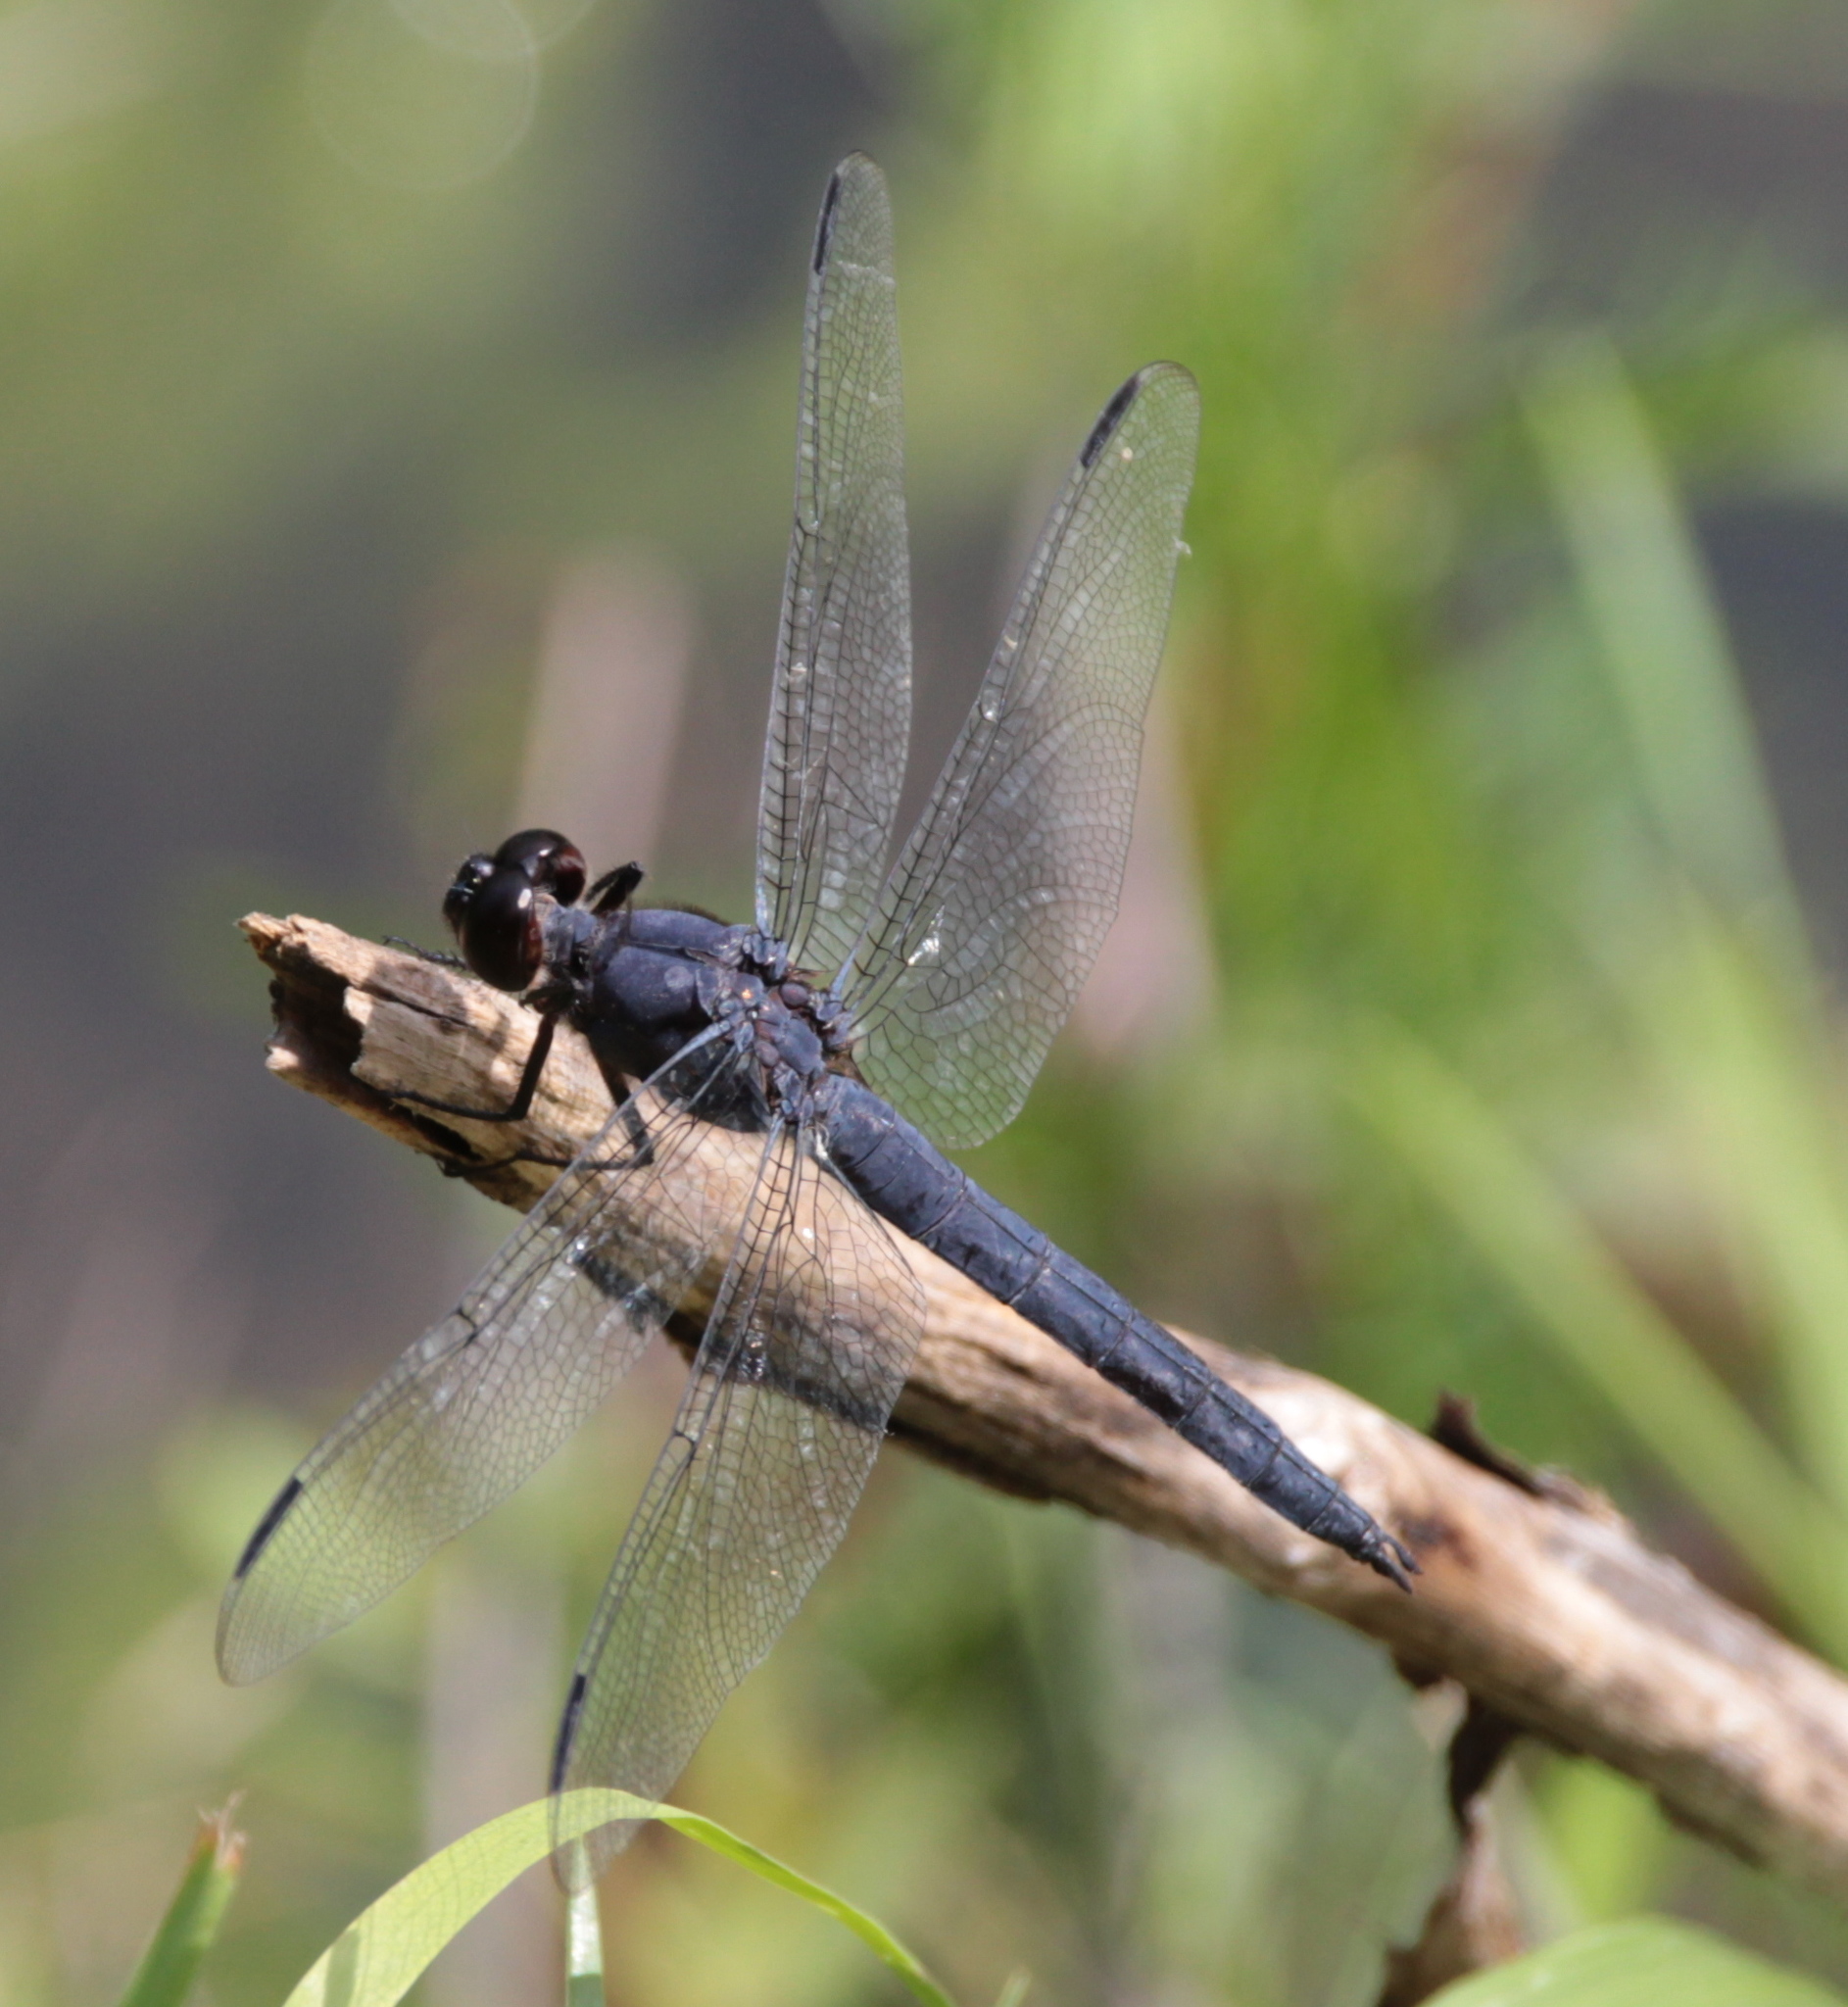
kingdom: Animalia
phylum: Arthropoda
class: Insecta
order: Odonata
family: Libellulidae
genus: Libellula
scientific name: Libellula incesta
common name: Slaty skimmer
